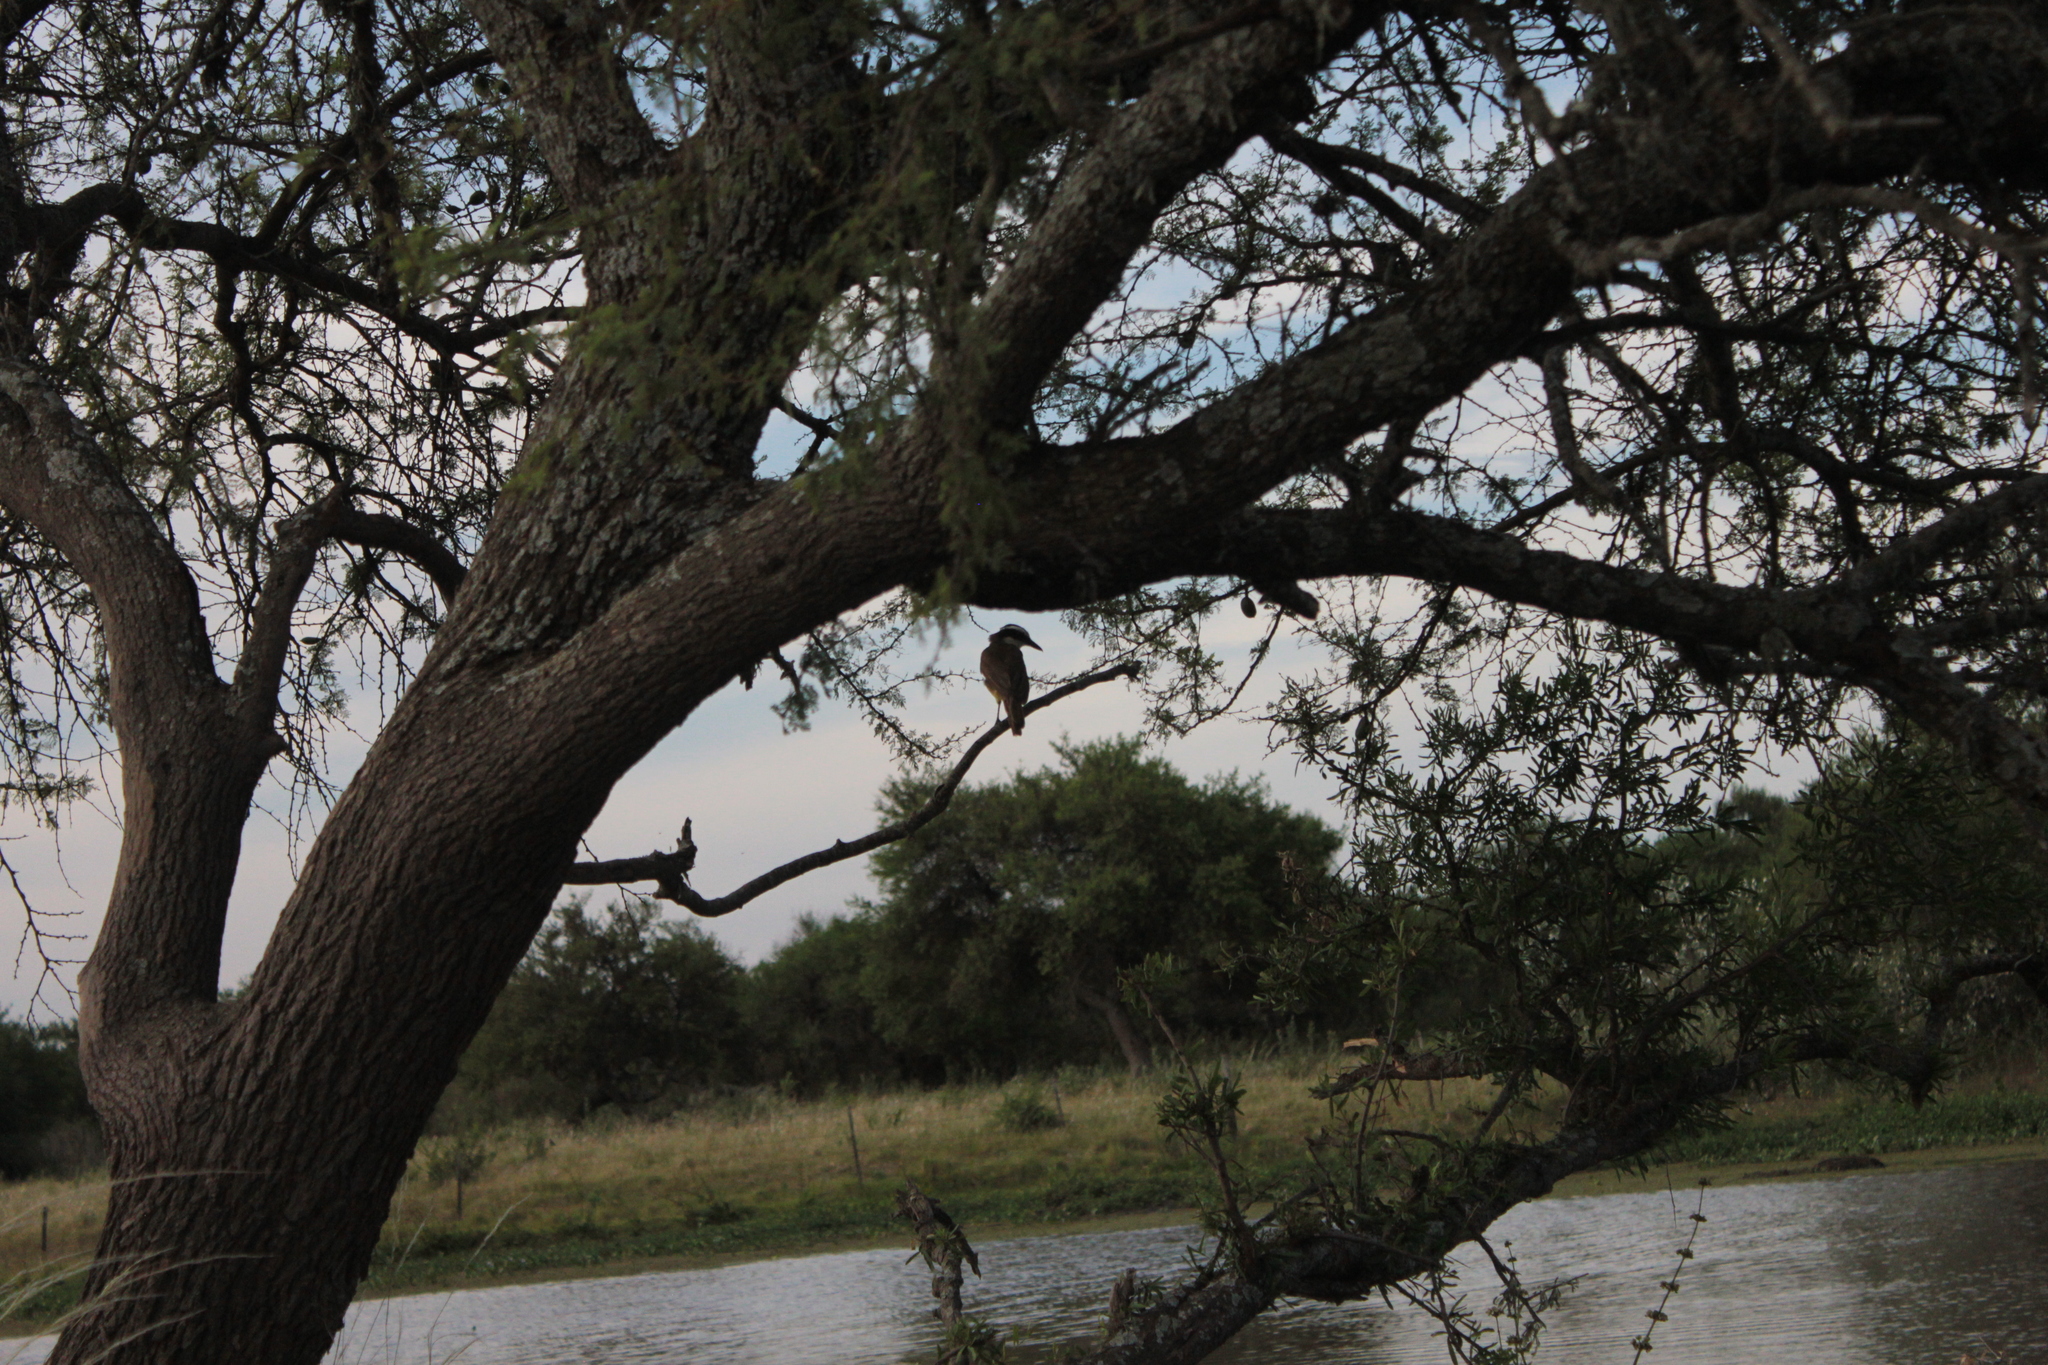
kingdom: Animalia
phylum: Chordata
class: Aves
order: Passeriformes
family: Tyrannidae
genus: Pitangus
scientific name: Pitangus sulphuratus
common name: Great kiskadee
